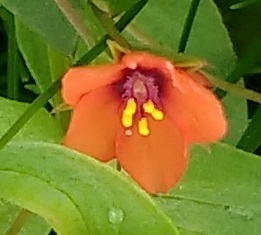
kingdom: Plantae
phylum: Tracheophyta
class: Magnoliopsida
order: Ericales
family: Primulaceae
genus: Lysimachia
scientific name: Lysimachia arvensis
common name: Scarlet pimpernel
